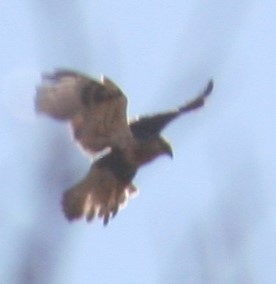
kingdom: Animalia
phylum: Chordata
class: Aves
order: Accipitriformes
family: Accipitridae
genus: Buteo
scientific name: Buteo lagopus
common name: Rough-legged buzzard
